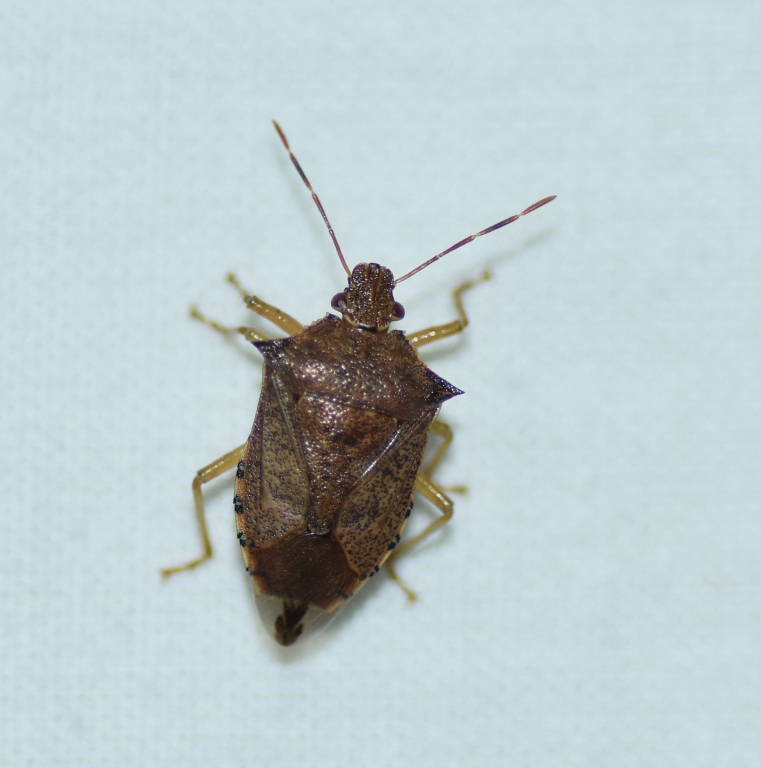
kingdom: Animalia
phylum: Arthropoda
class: Insecta
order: Hemiptera
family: Pentatomidae
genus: Podisus
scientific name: Podisus maculiventris
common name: Spined soldier bug
